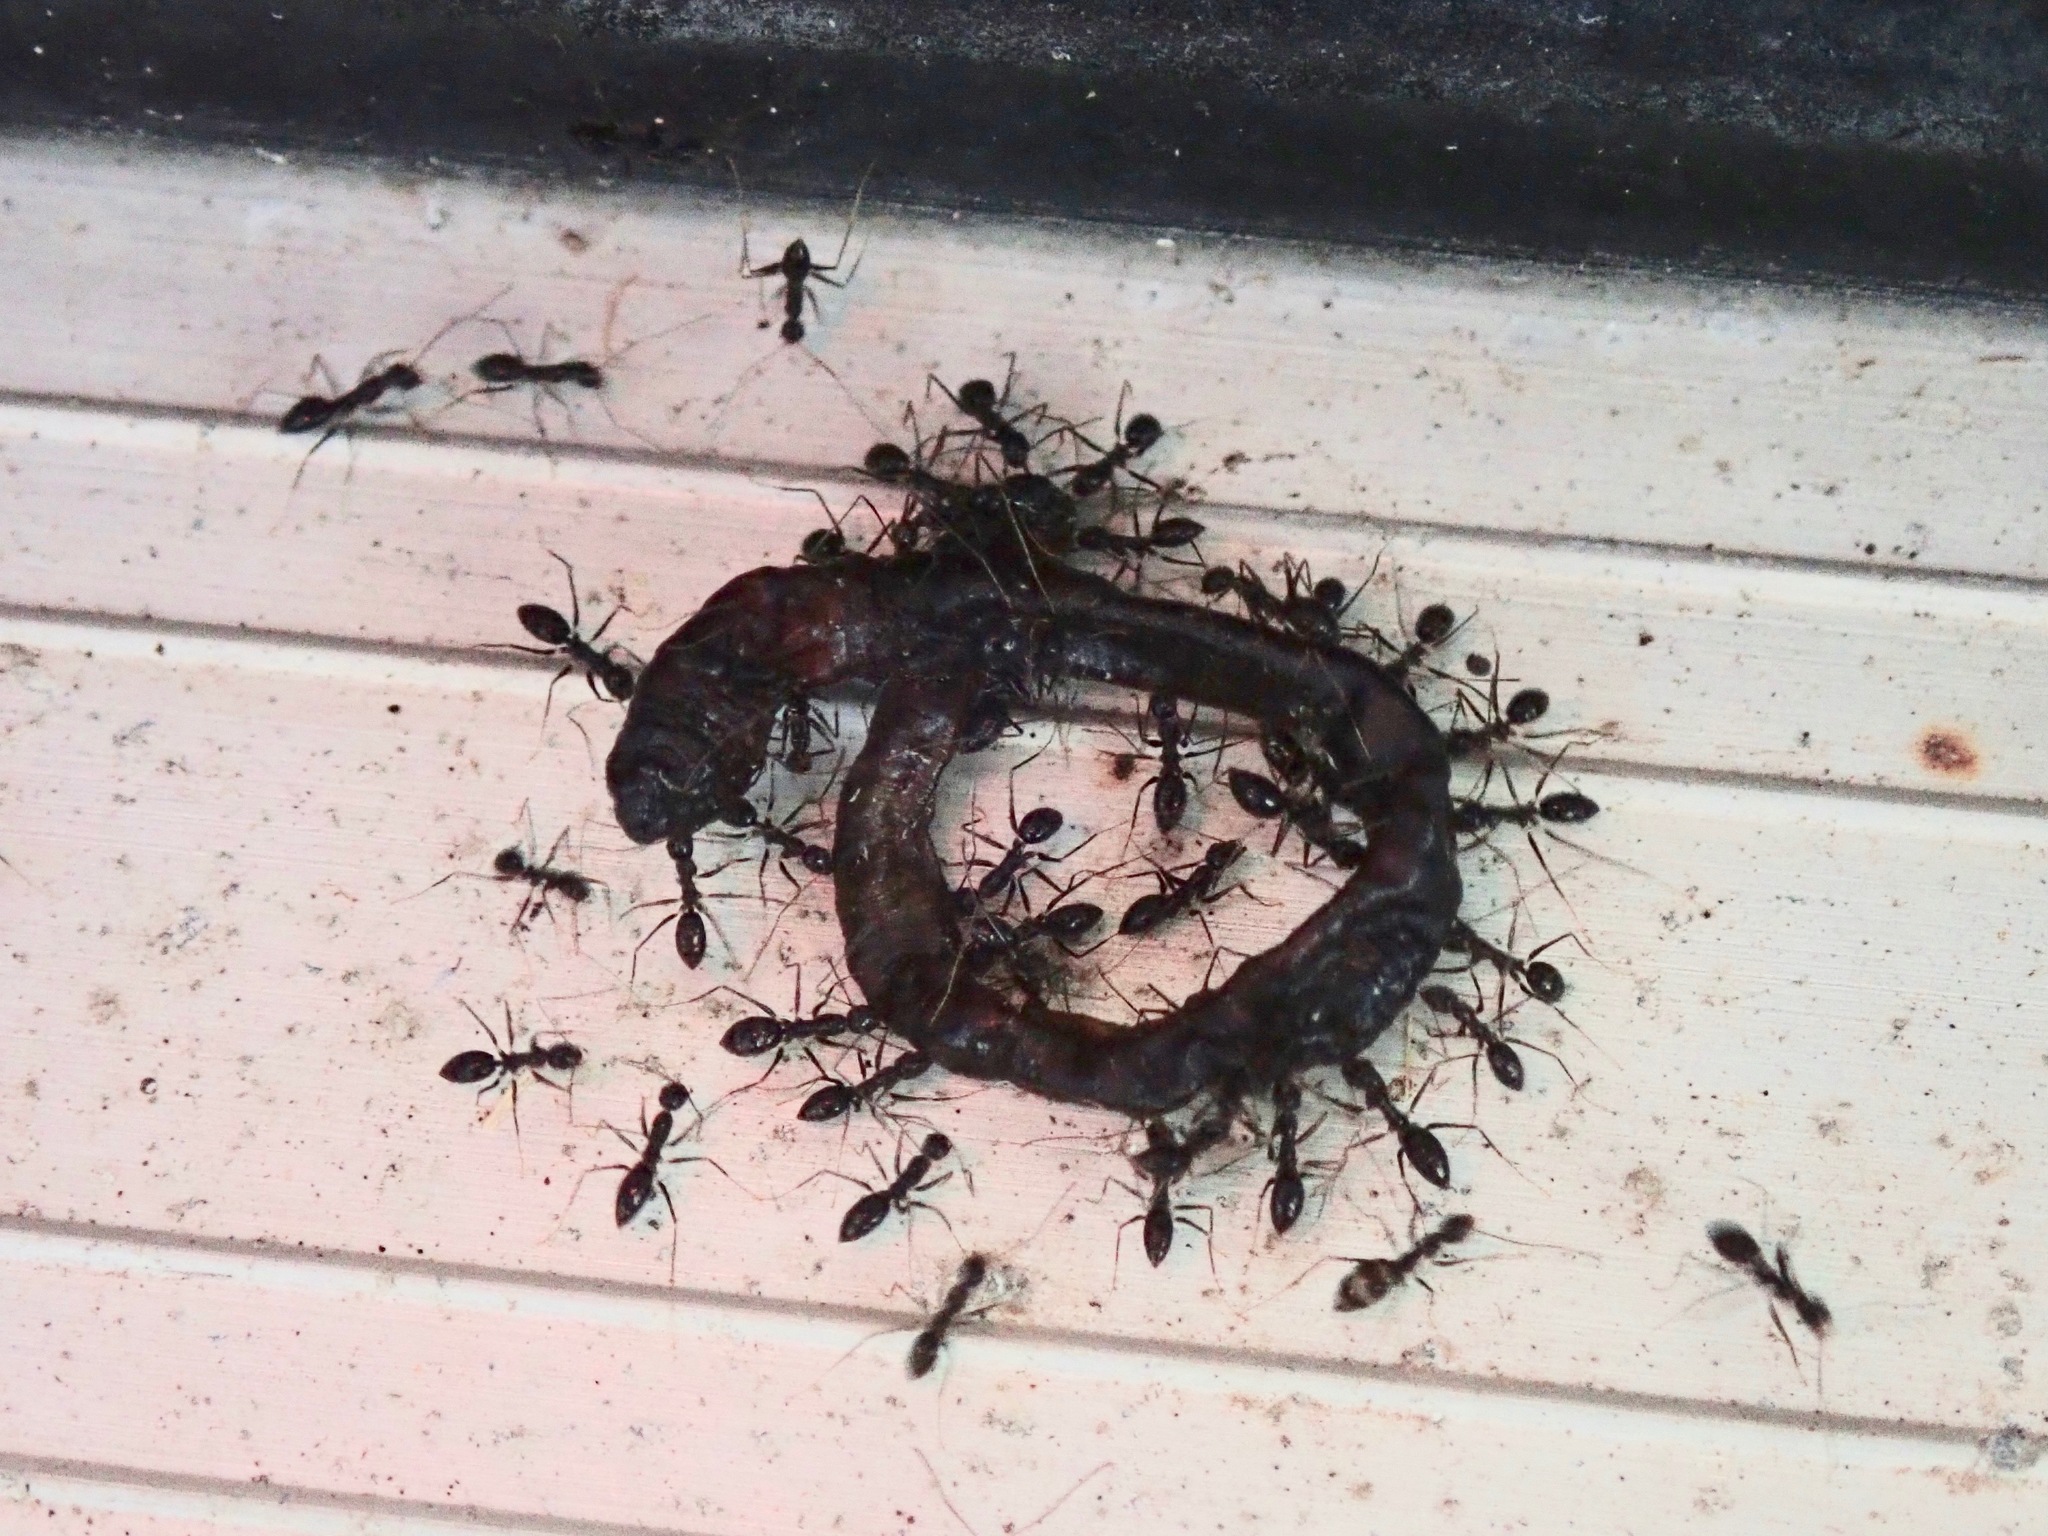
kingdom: Animalia
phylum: Arthropoda
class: Insecta
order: Hymenoptera
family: Formicidae
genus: Paratrechina
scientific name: Paratrechina longicornis
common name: Longhorned crazy ant
